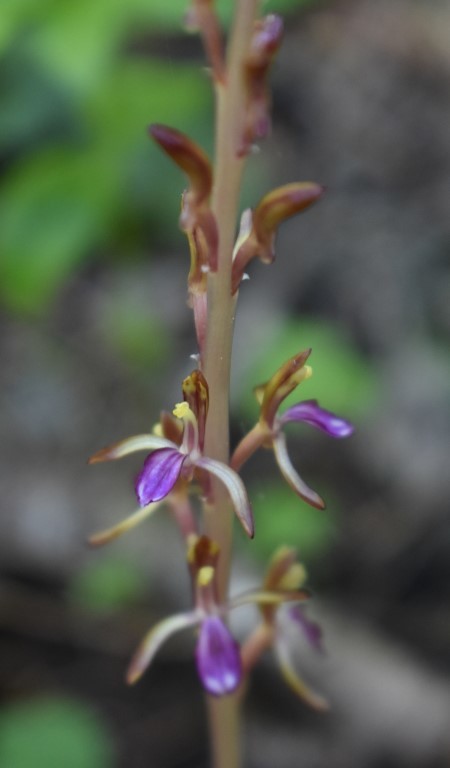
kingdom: Plantae
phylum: Tracheophyta
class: Liliopsida
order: Asparagales
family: Orchidaceae
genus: Corallorhiza
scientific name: Corallorhiza mertensiana
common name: Pacific coralroot
